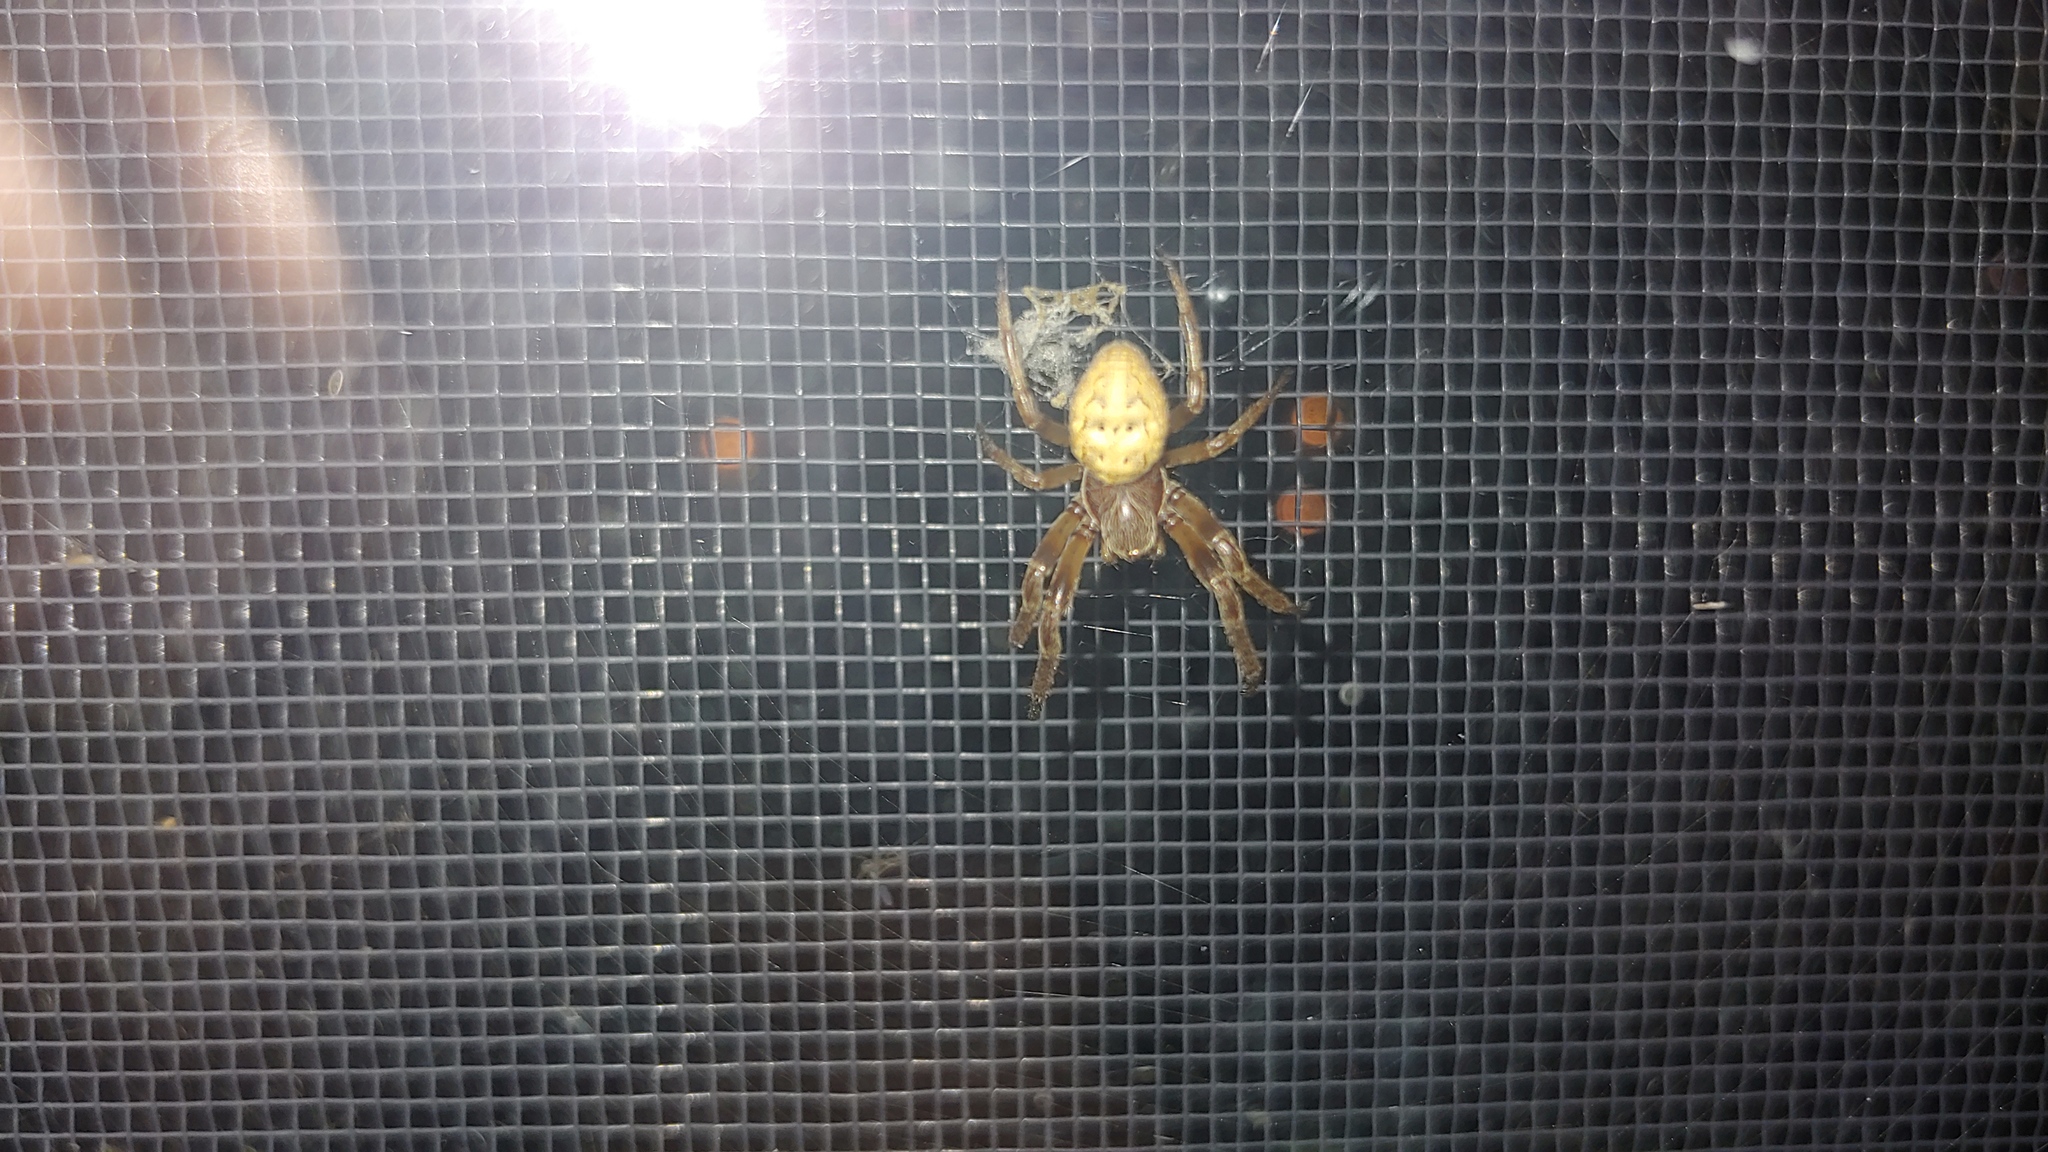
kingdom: Animalia
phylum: Arthropoda
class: Arachnida
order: Araneae
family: Araneidae
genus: Larinioides
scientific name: Larinioides cornutus
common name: Furrow orbweaver
